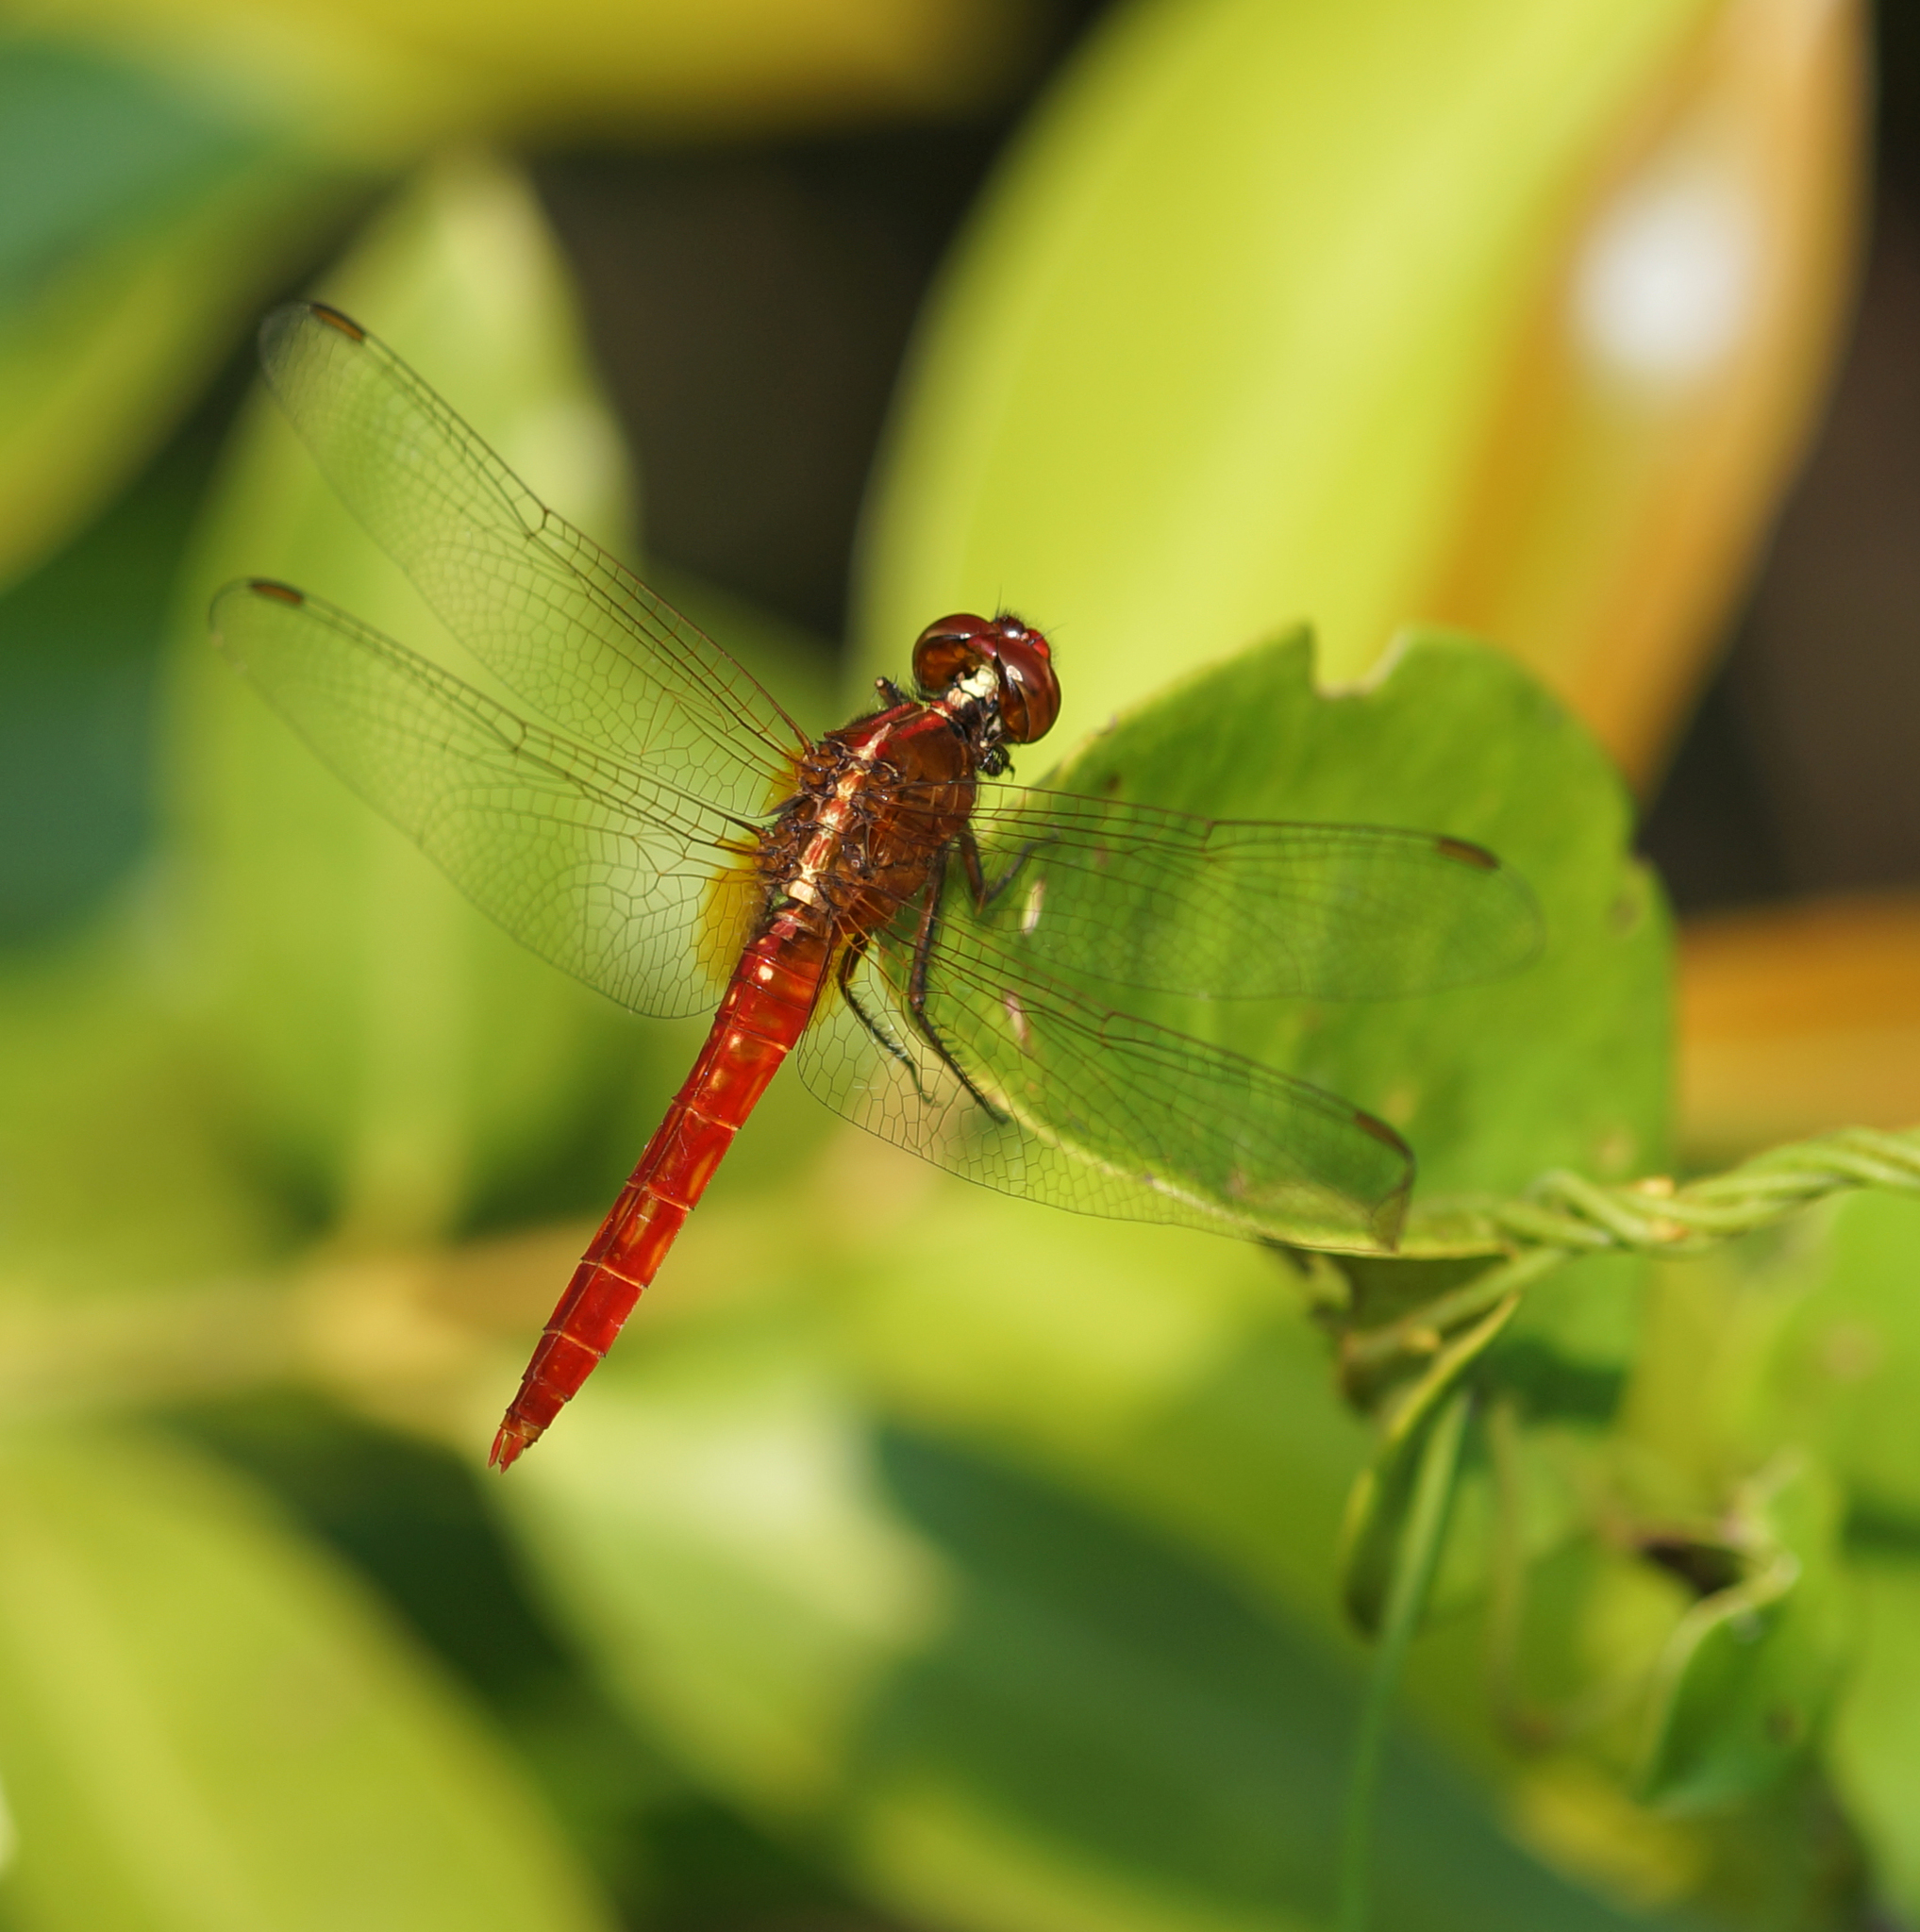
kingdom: Animalia
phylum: Arthropoda
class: Insecta
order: Odonata
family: Libellulidae
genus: Rhodothemis
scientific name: Rhodothemis rufa
